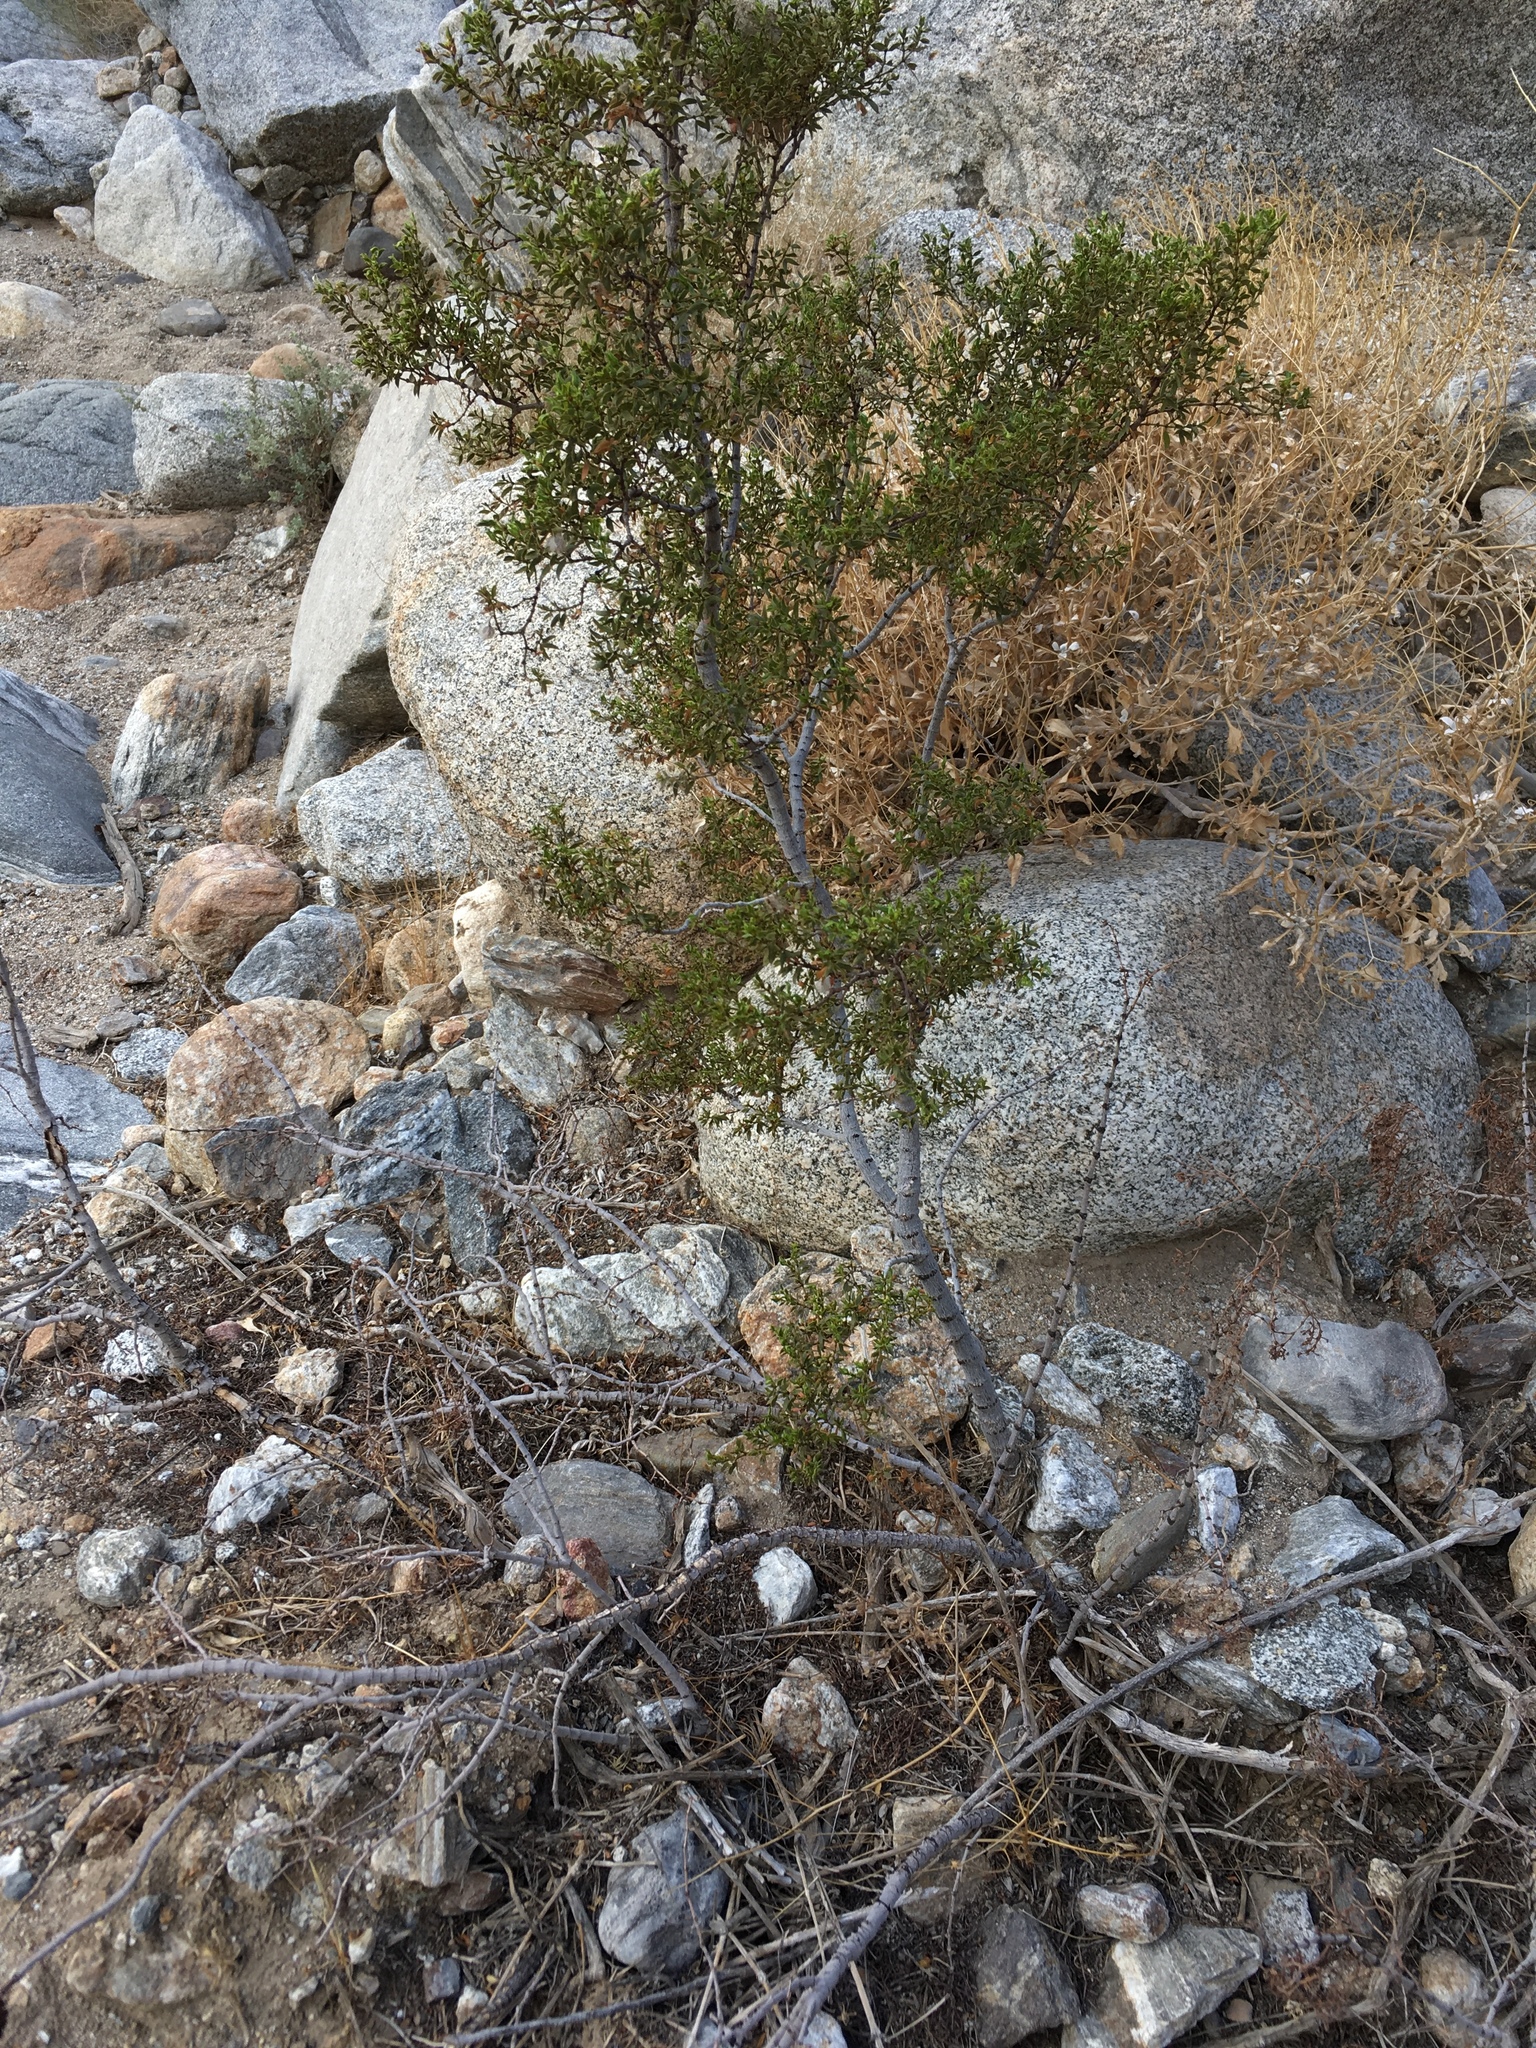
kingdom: Plantae
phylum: Tracheophyta
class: Magnoliopsida
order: Zygophyllales
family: Zygophyllaceae
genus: Larrea
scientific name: Larrea tridentata
